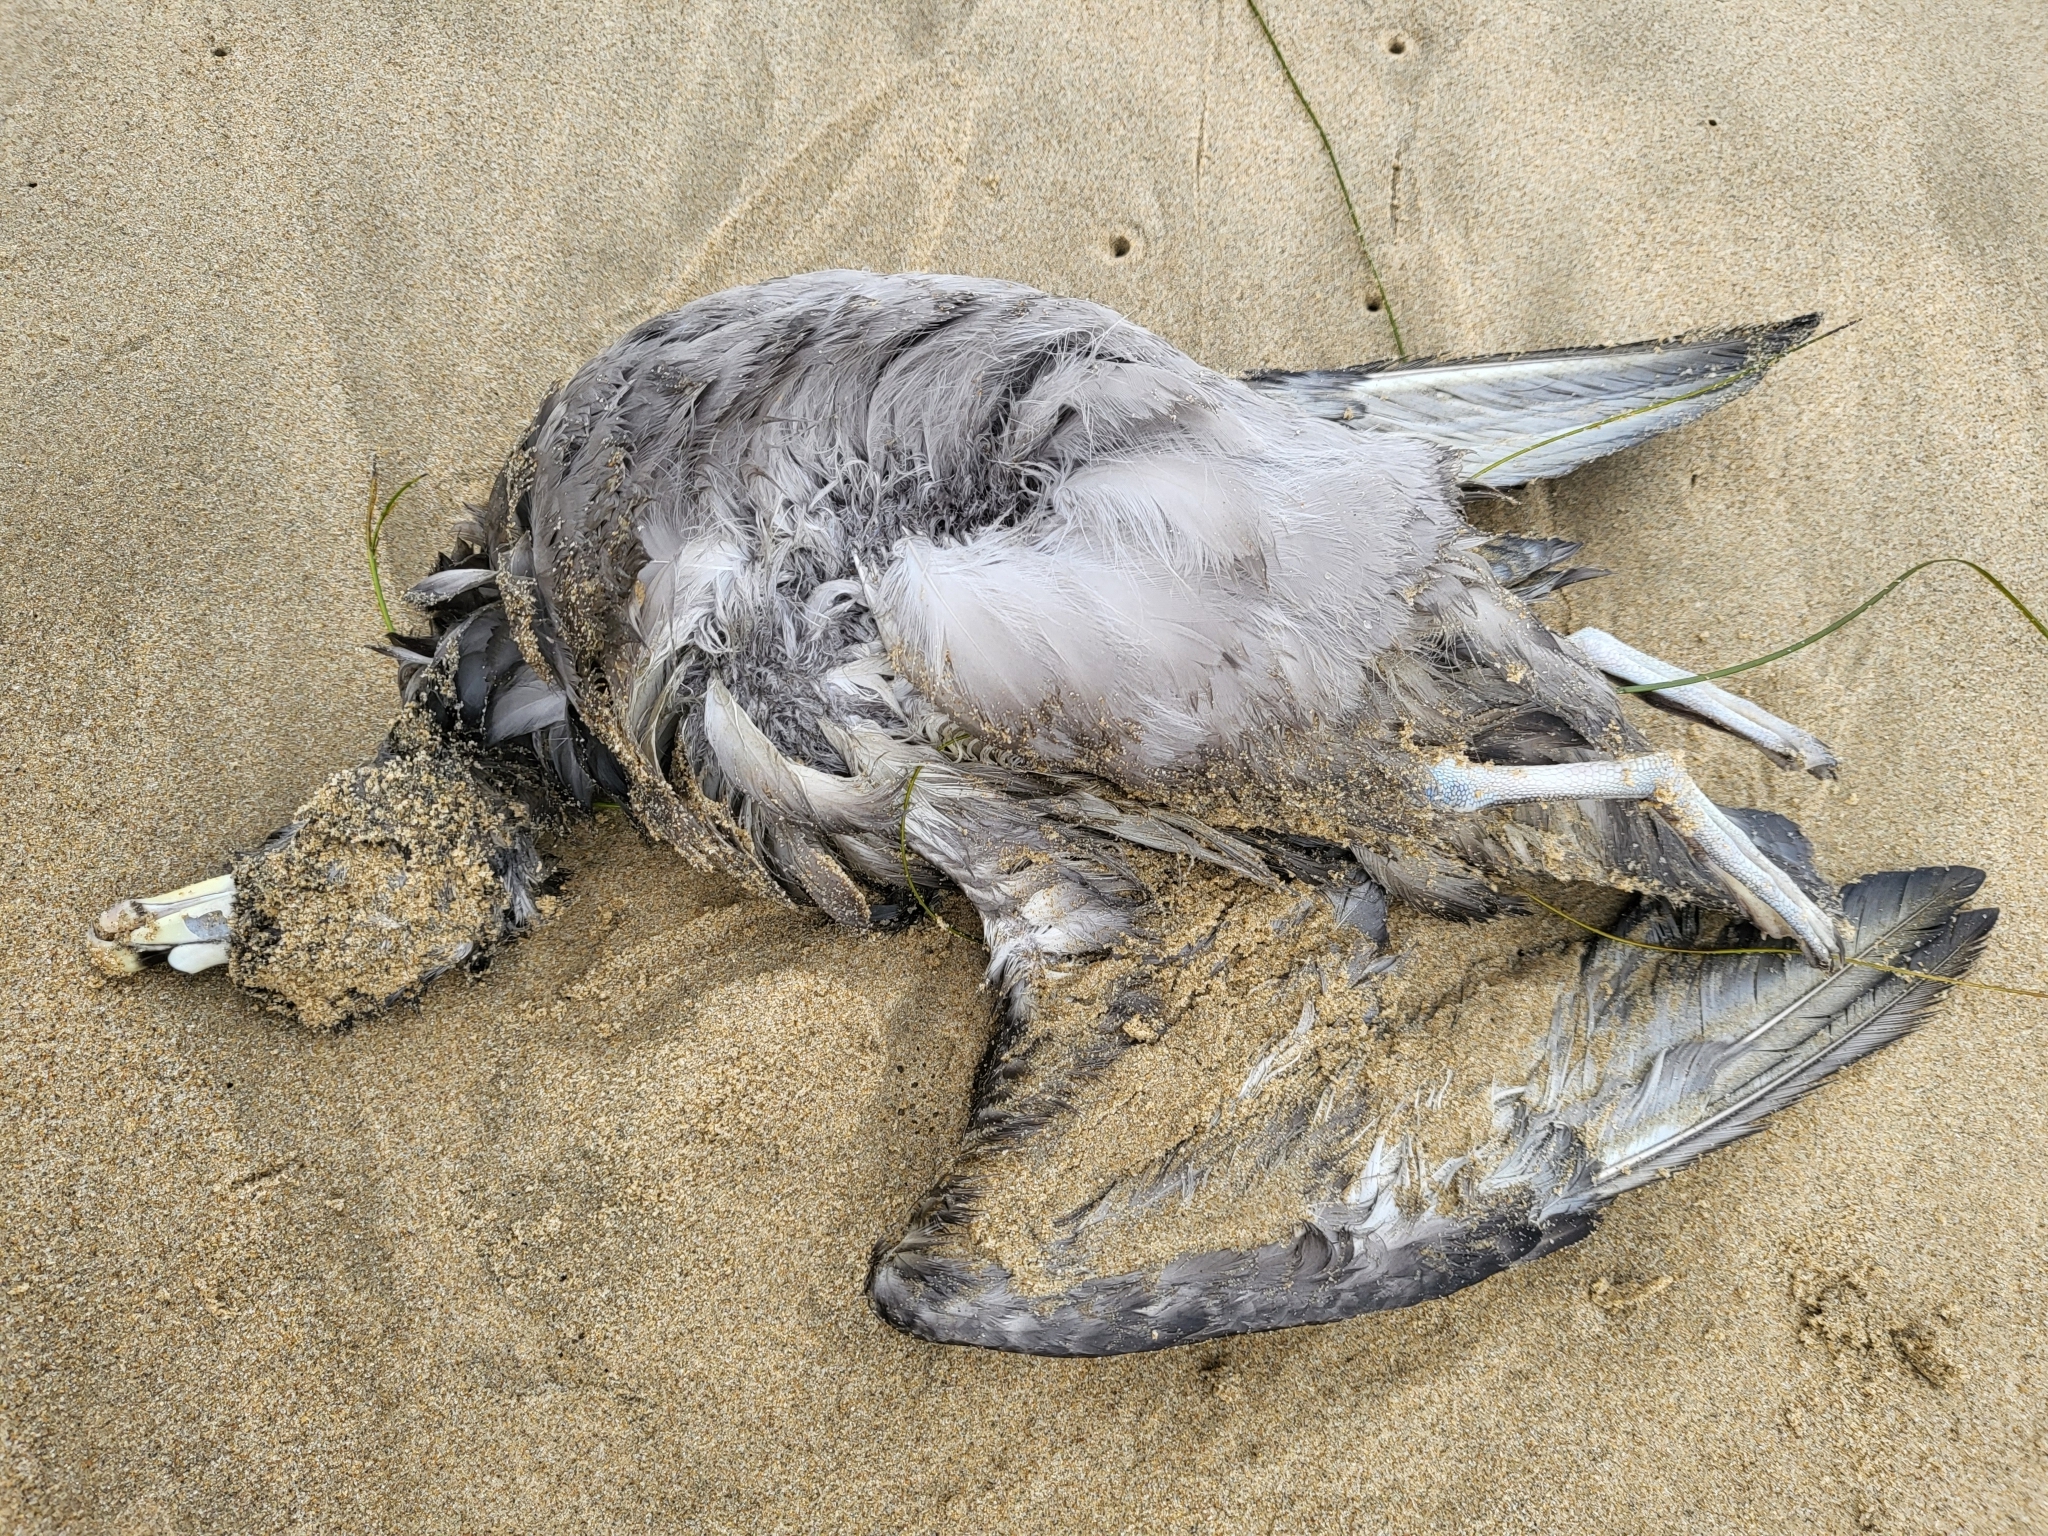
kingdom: Animalia
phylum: Chordata
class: Aves
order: Procellariiformes
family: Procellariidae
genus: Fulmarus
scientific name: Fulmarus glacialis
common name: Northern fulmar
